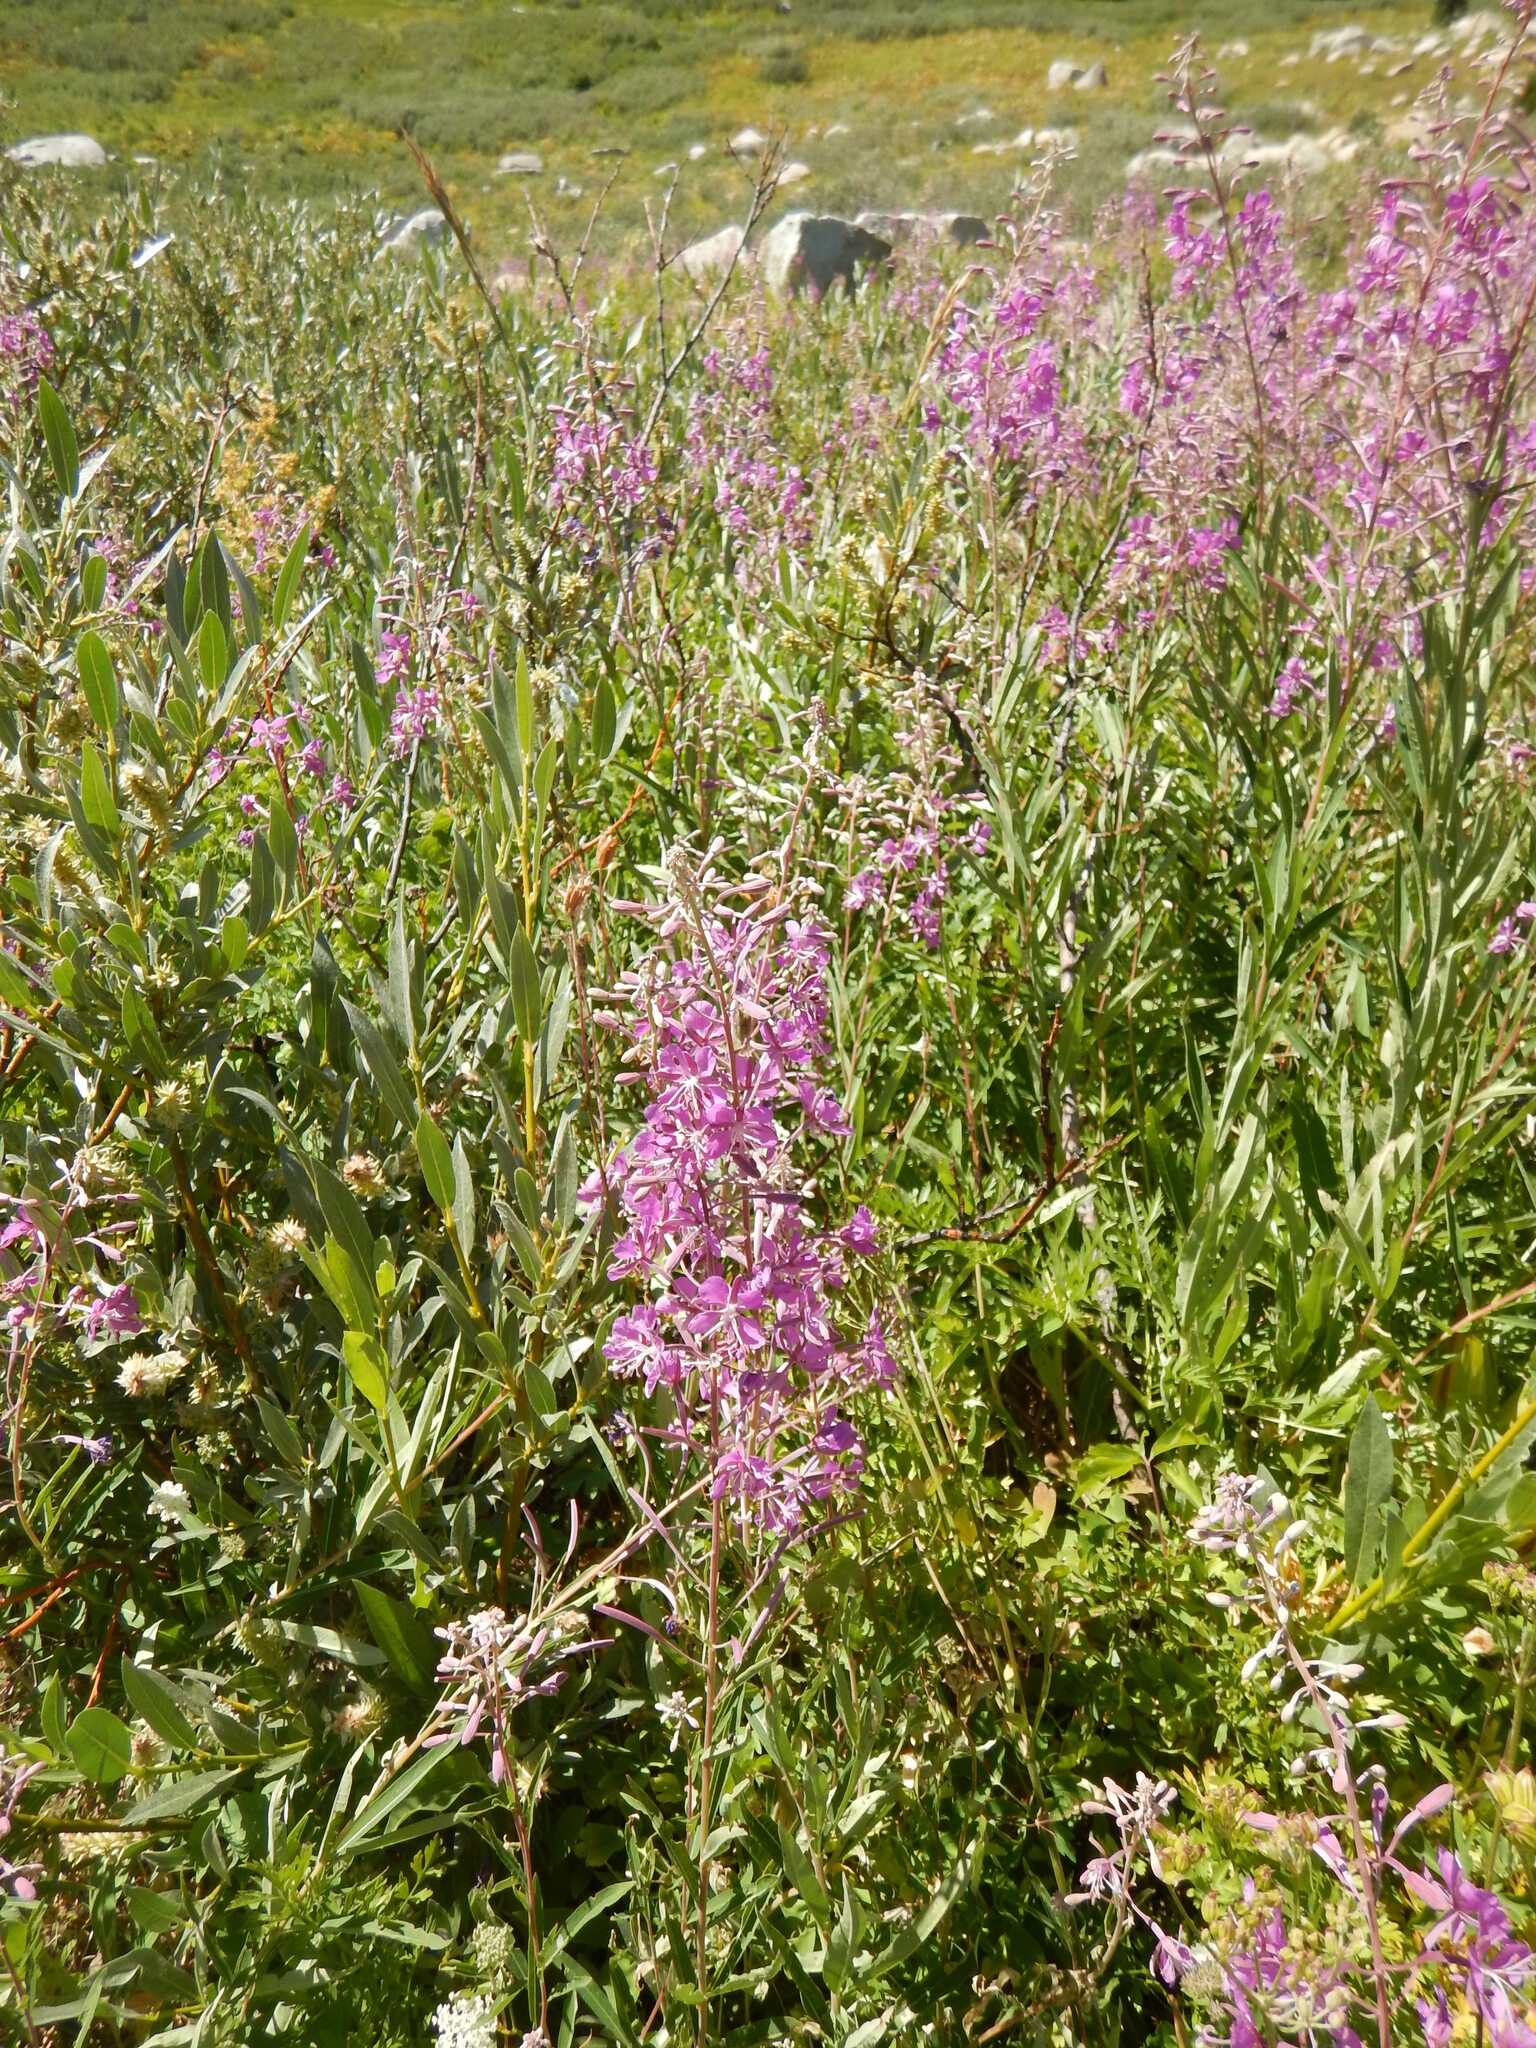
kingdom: Plantae
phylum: Tracheophyta
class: Magnoliopsida
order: Myrtales
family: Onagraceae
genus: Chamaenerion
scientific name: Chamaenerion angustifolium
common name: Fireweed
